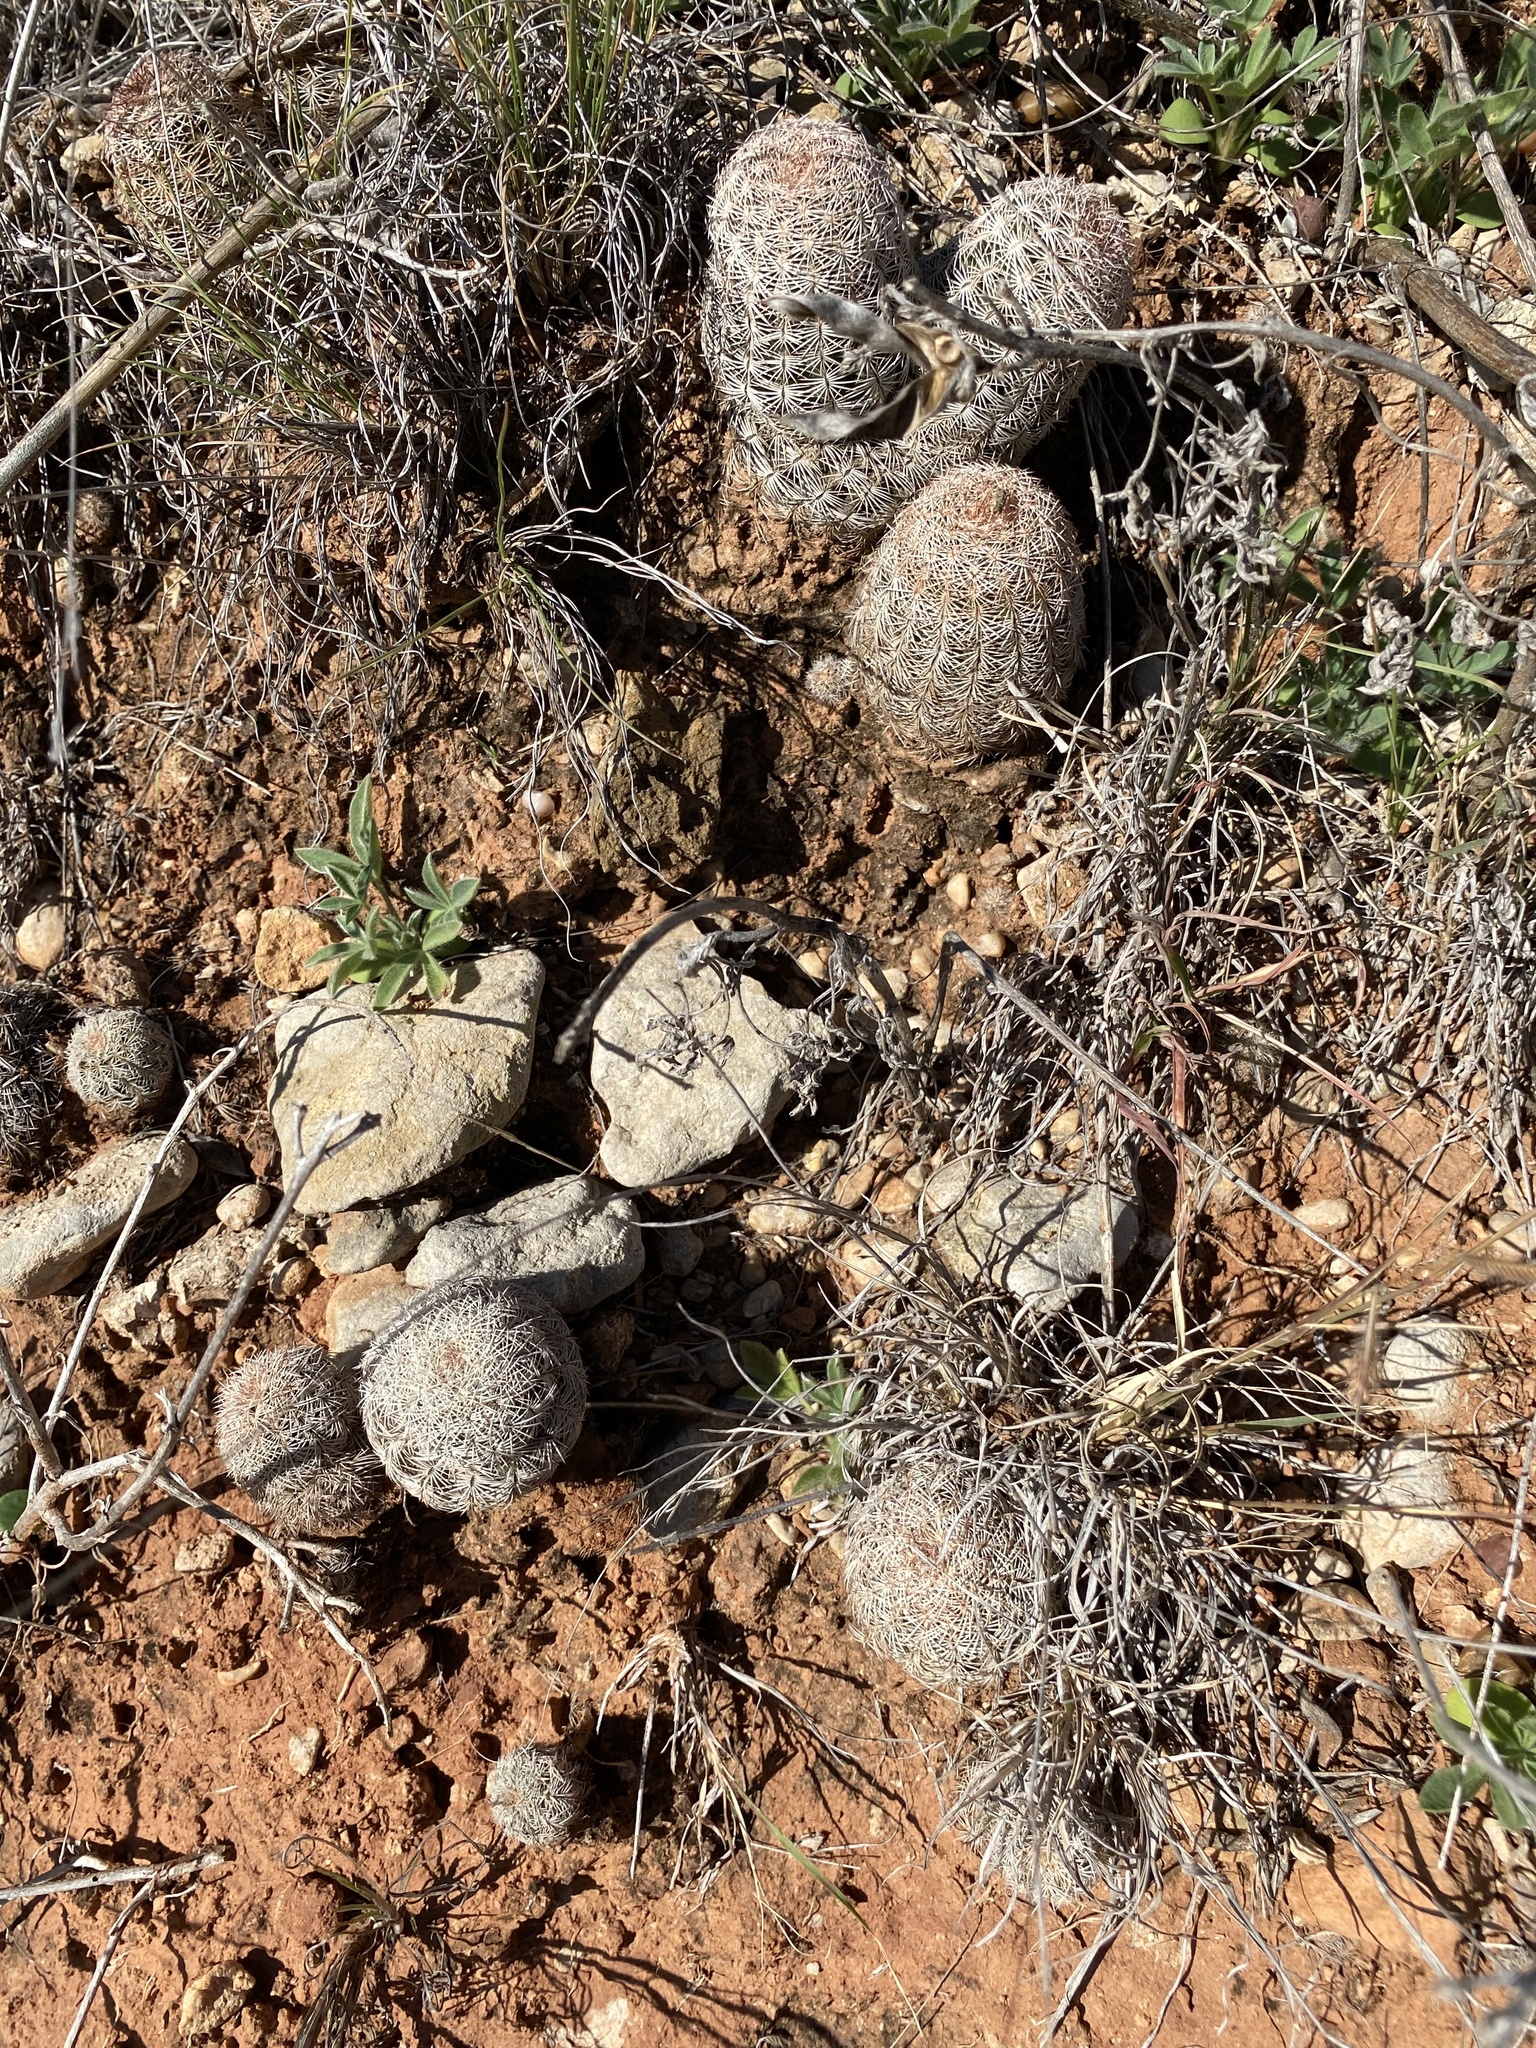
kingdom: Plantae
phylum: Tracheophyta
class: Magnoliopsida
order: Caryophyllales
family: Cactaceae
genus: Echinocereus
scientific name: Echinocereus reichenbachii
